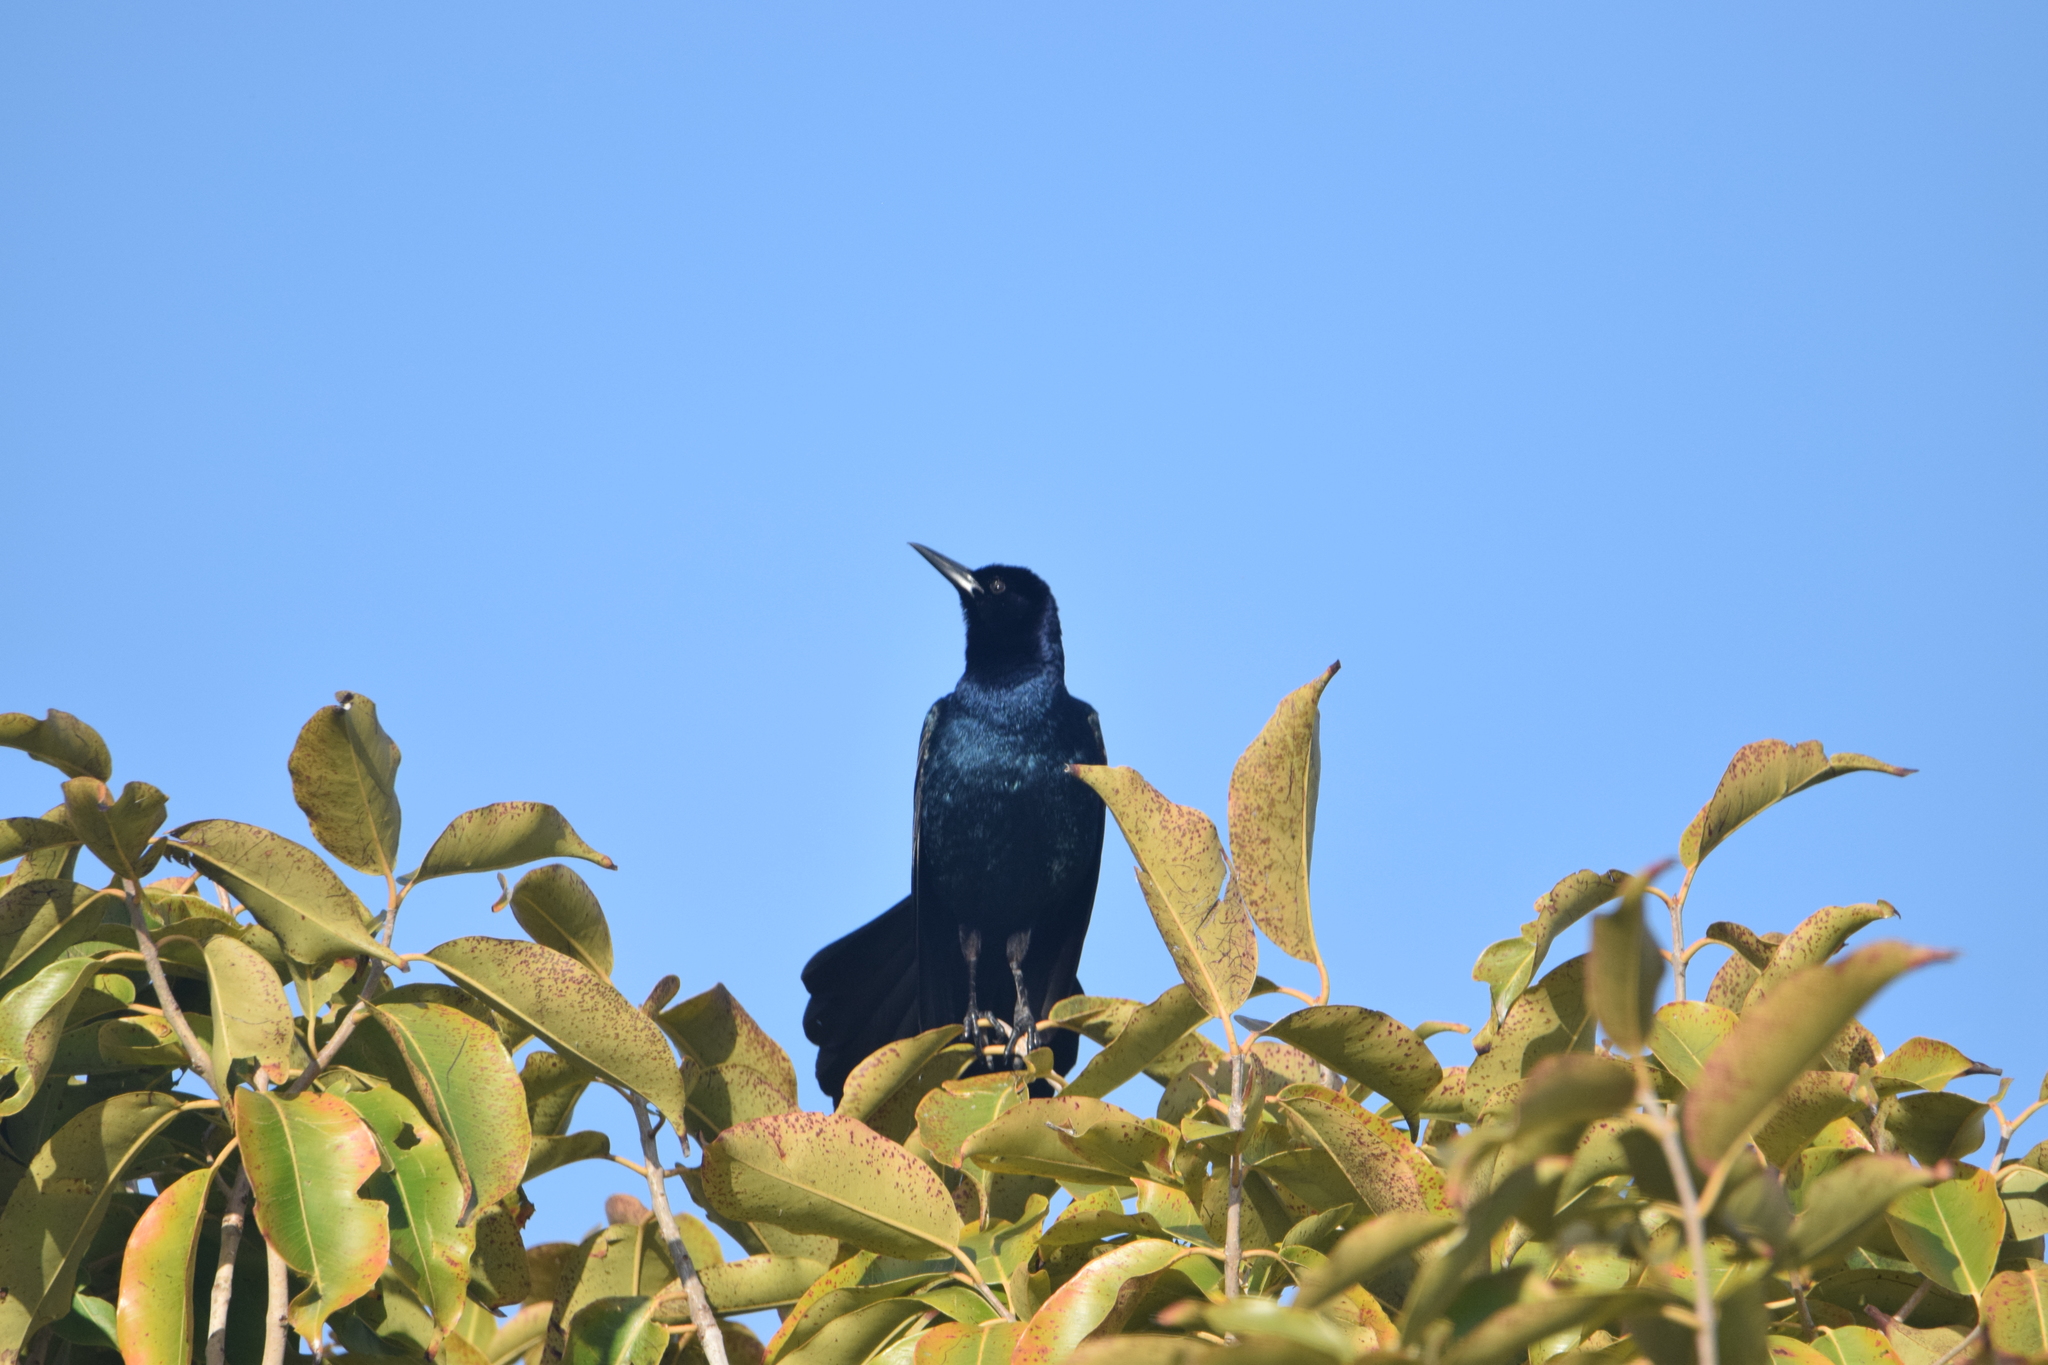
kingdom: Animalia
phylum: Chordata
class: Aves
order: Passeriformes
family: Icteridae
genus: Quiscalus
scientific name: Quiscalus major
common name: Boat-tailed grackle
